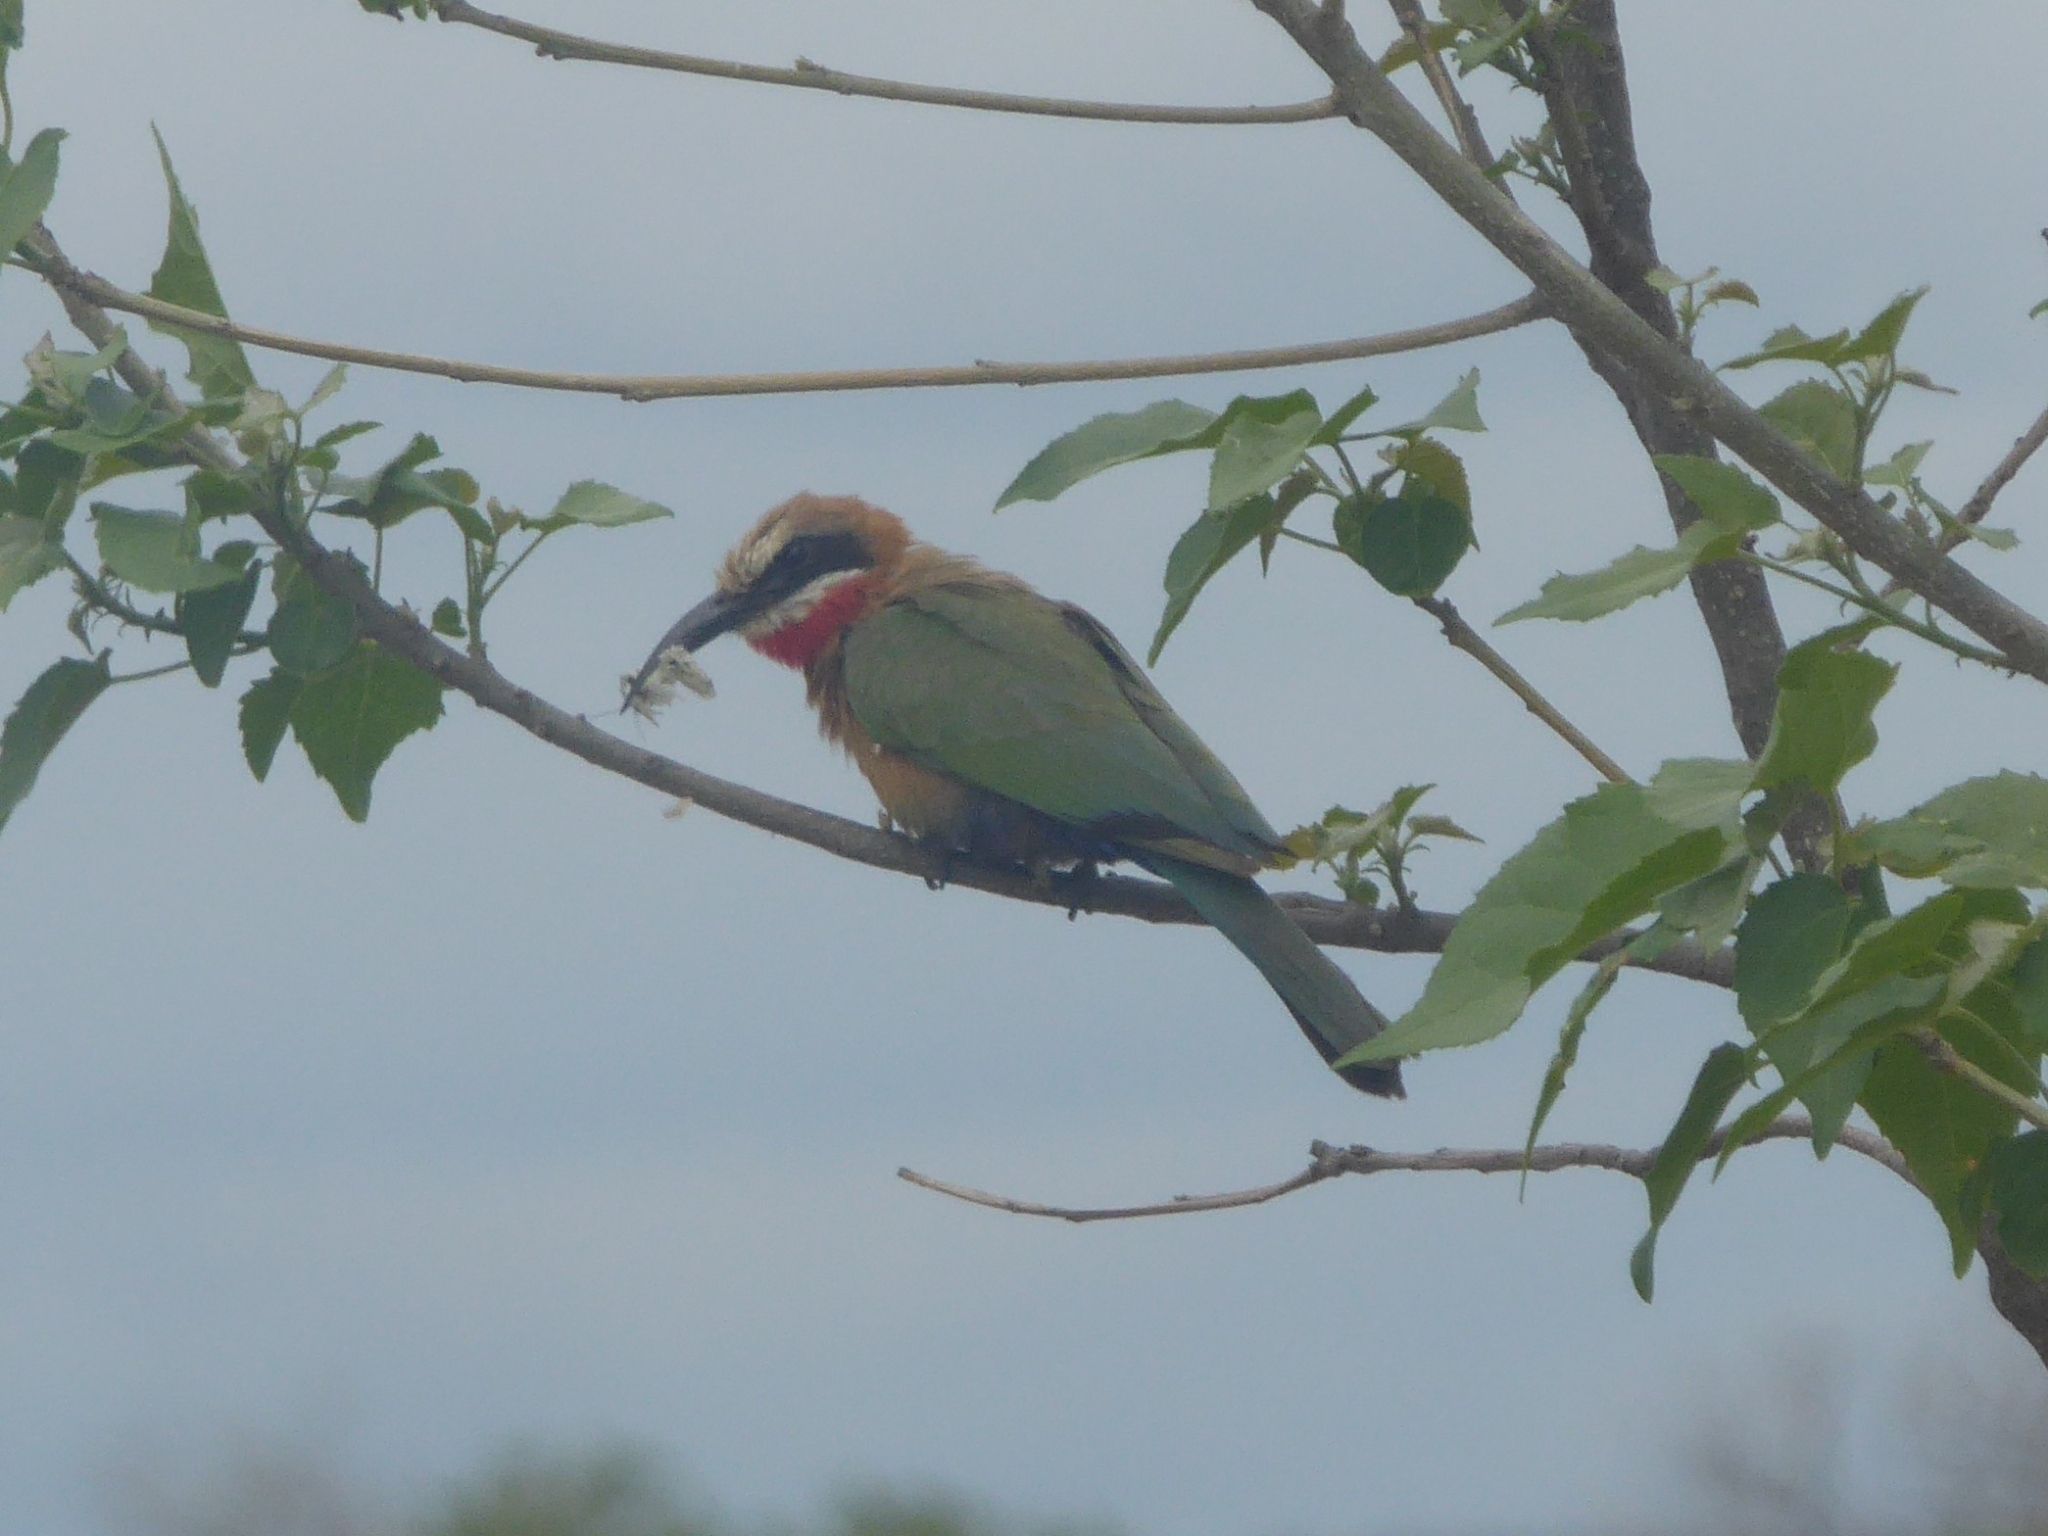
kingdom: Animalia
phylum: Chordata
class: Aves
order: Coraciiformes
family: Meropidae
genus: Merops
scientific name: Merops bullockoides
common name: White-fronted bee-eater
